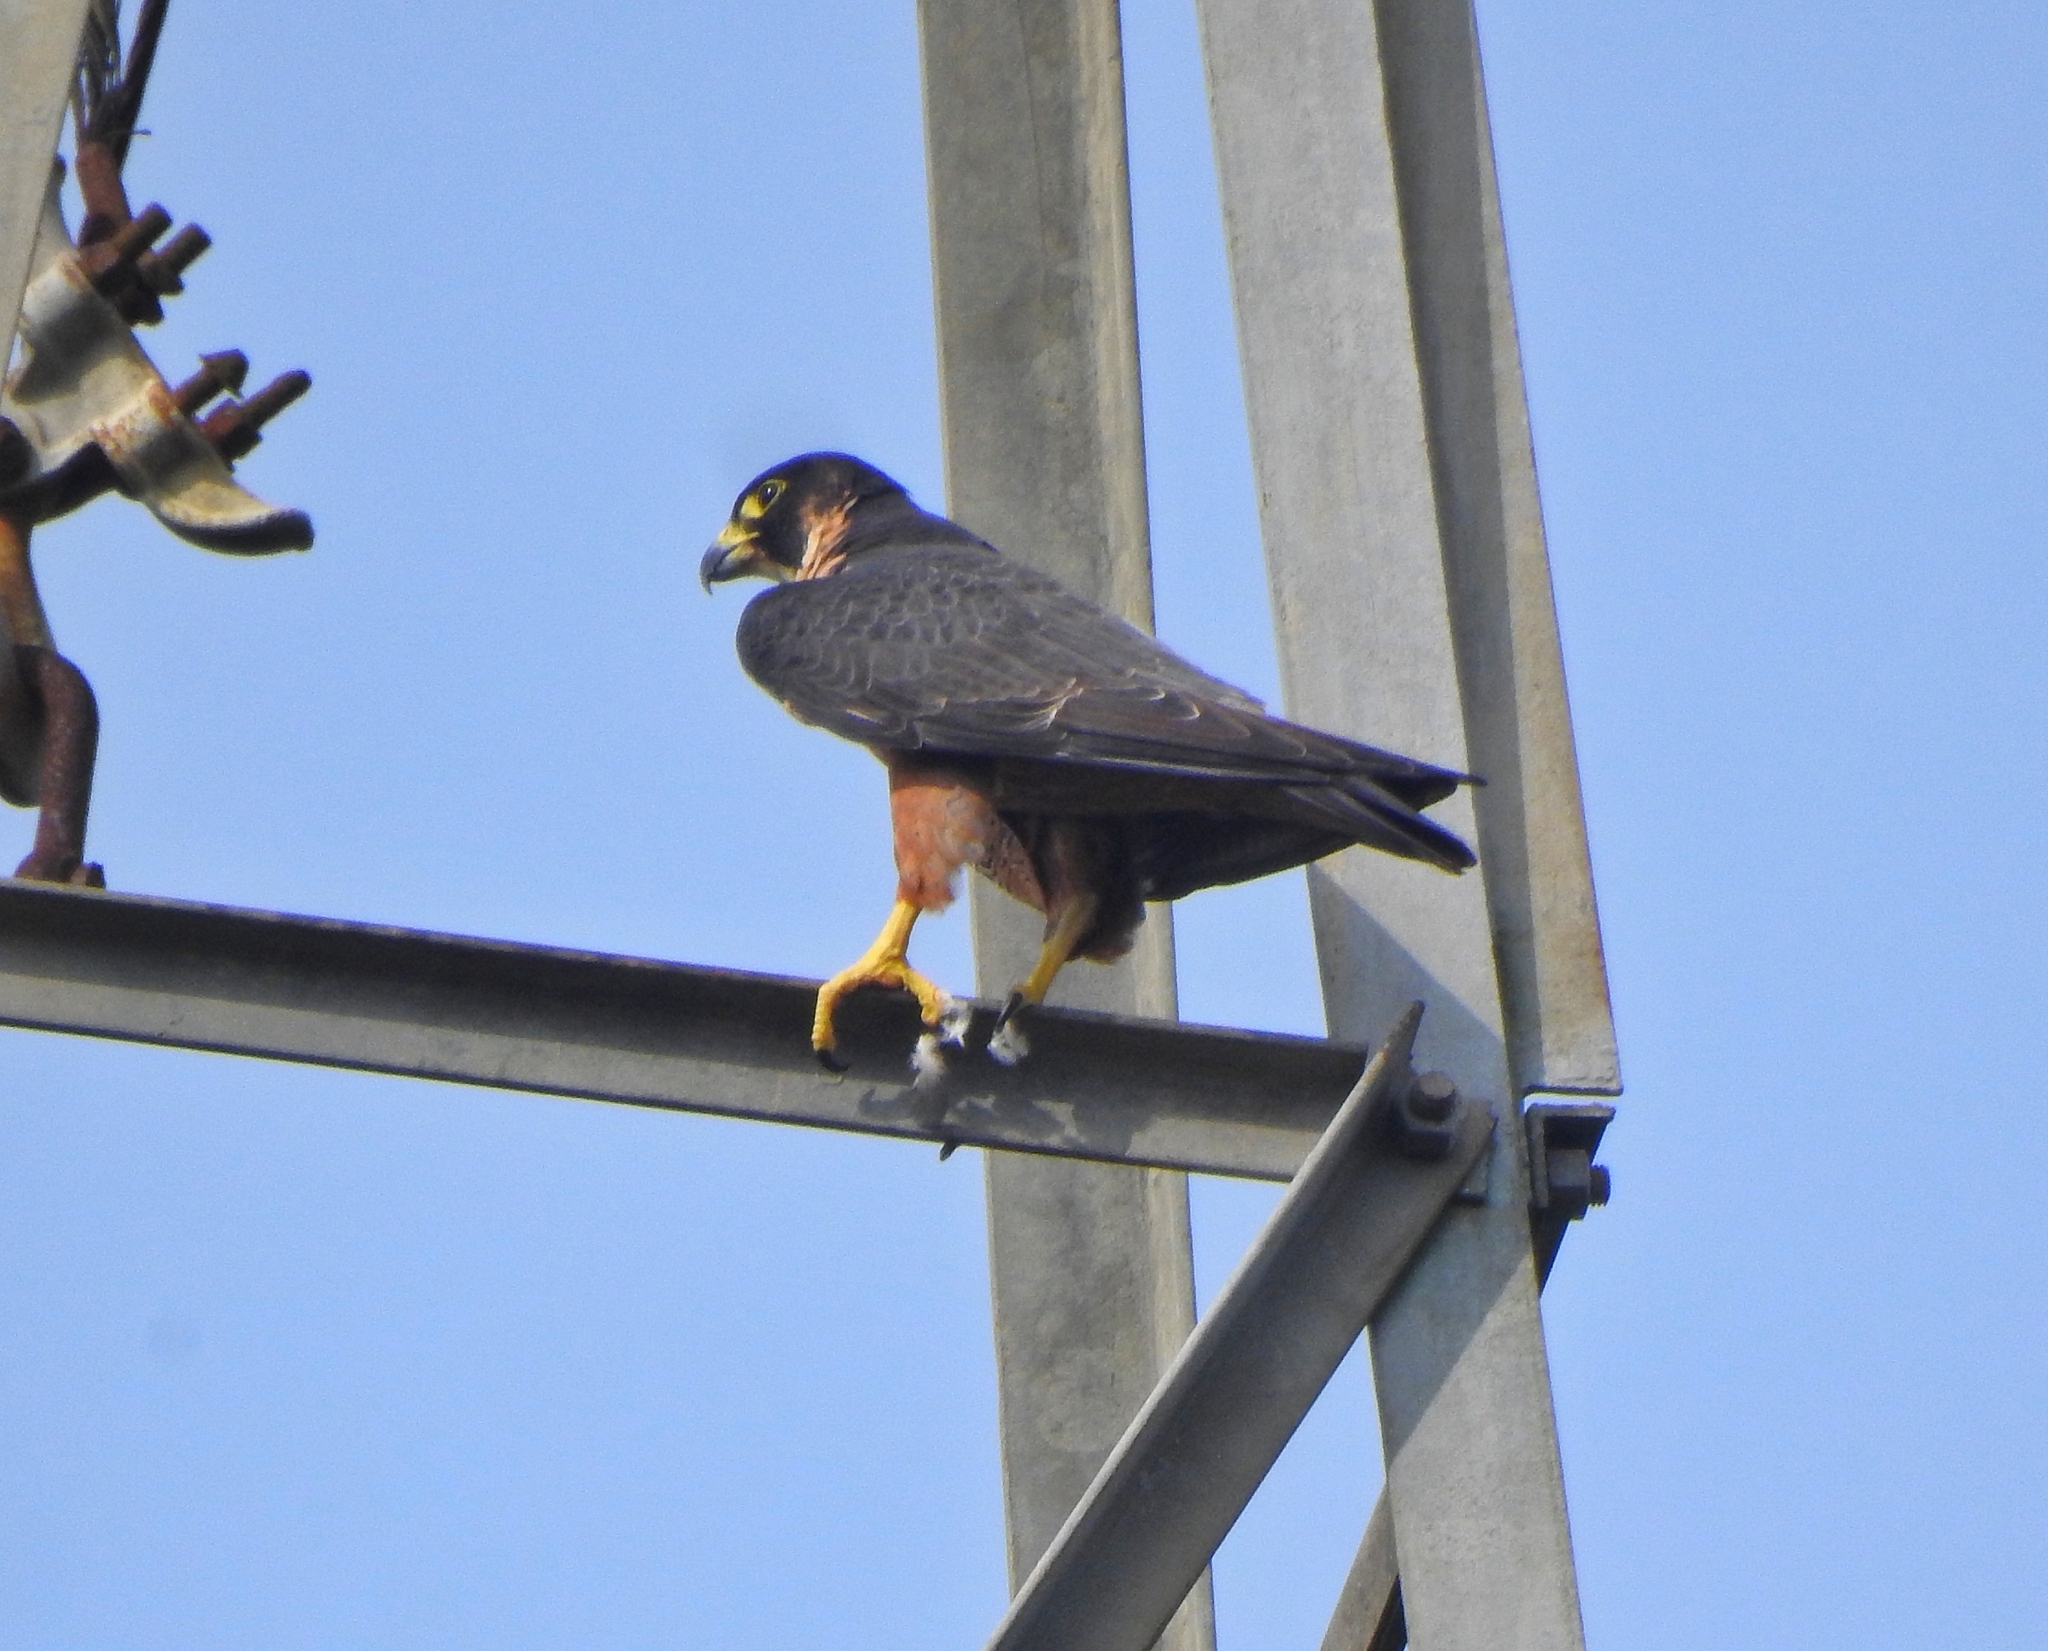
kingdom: Animalia
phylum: Chordata
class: Aves
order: Falconiformes
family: Falconidae
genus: Falco
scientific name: Falco peregrinus
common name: Peregrine falcon
